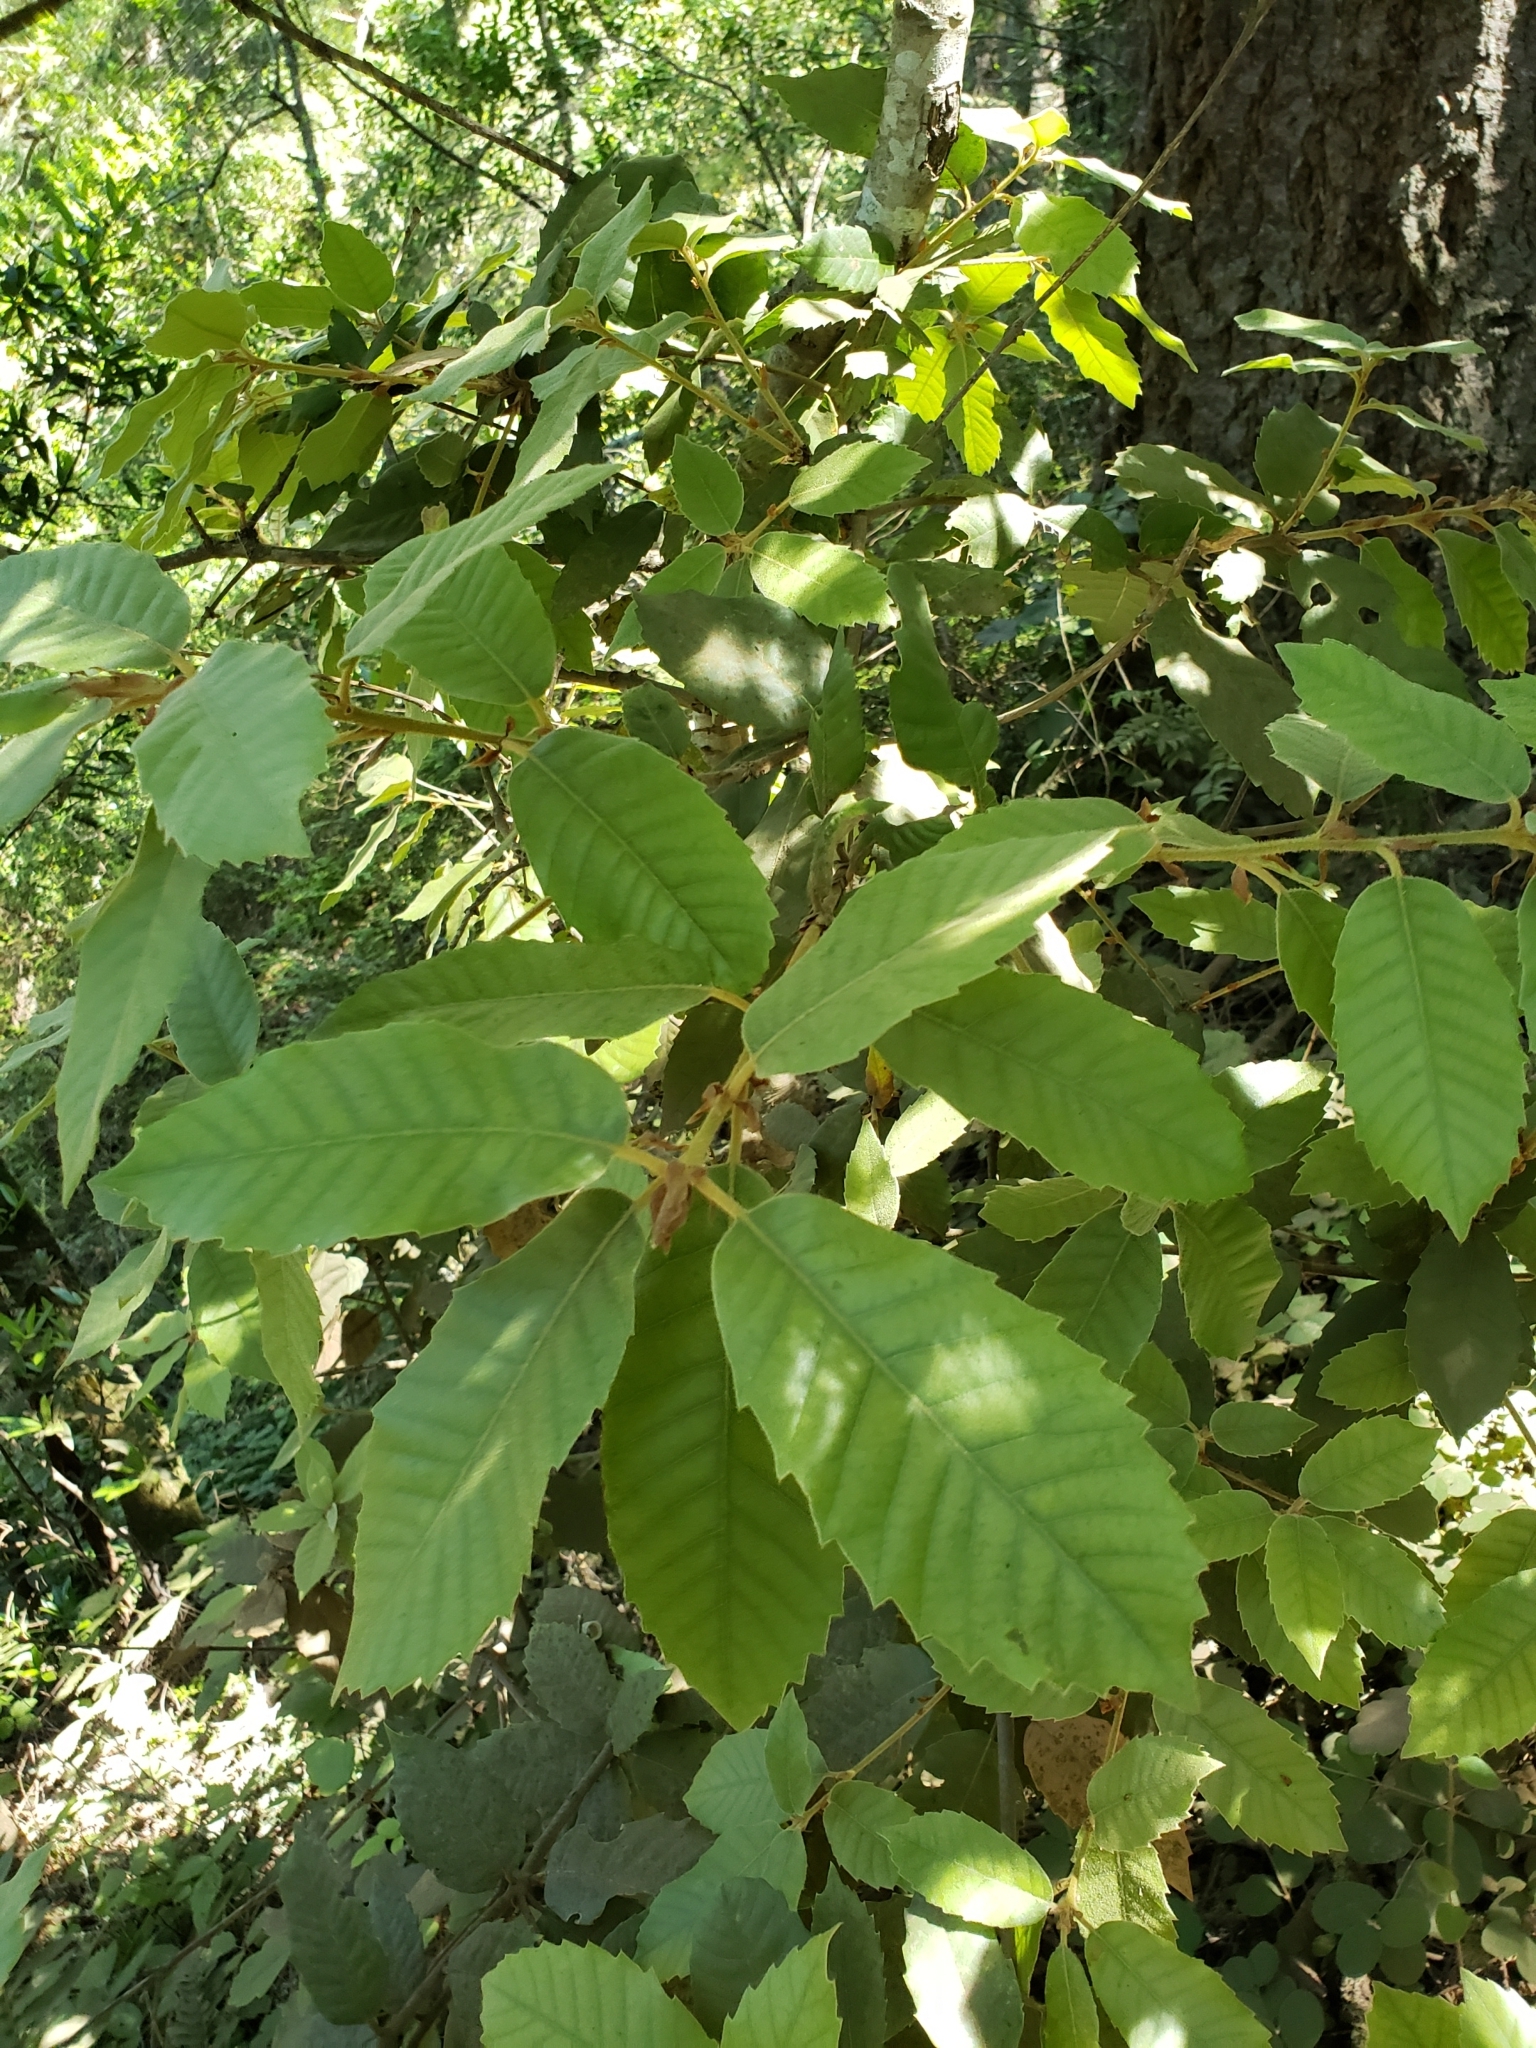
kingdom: Plantae
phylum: Tracheophyta
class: Magnoliopsida
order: Fagales
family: Fagaceae
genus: Notholithocarpus
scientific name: Notholithocarpus densiflorus
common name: Tan bark oak
